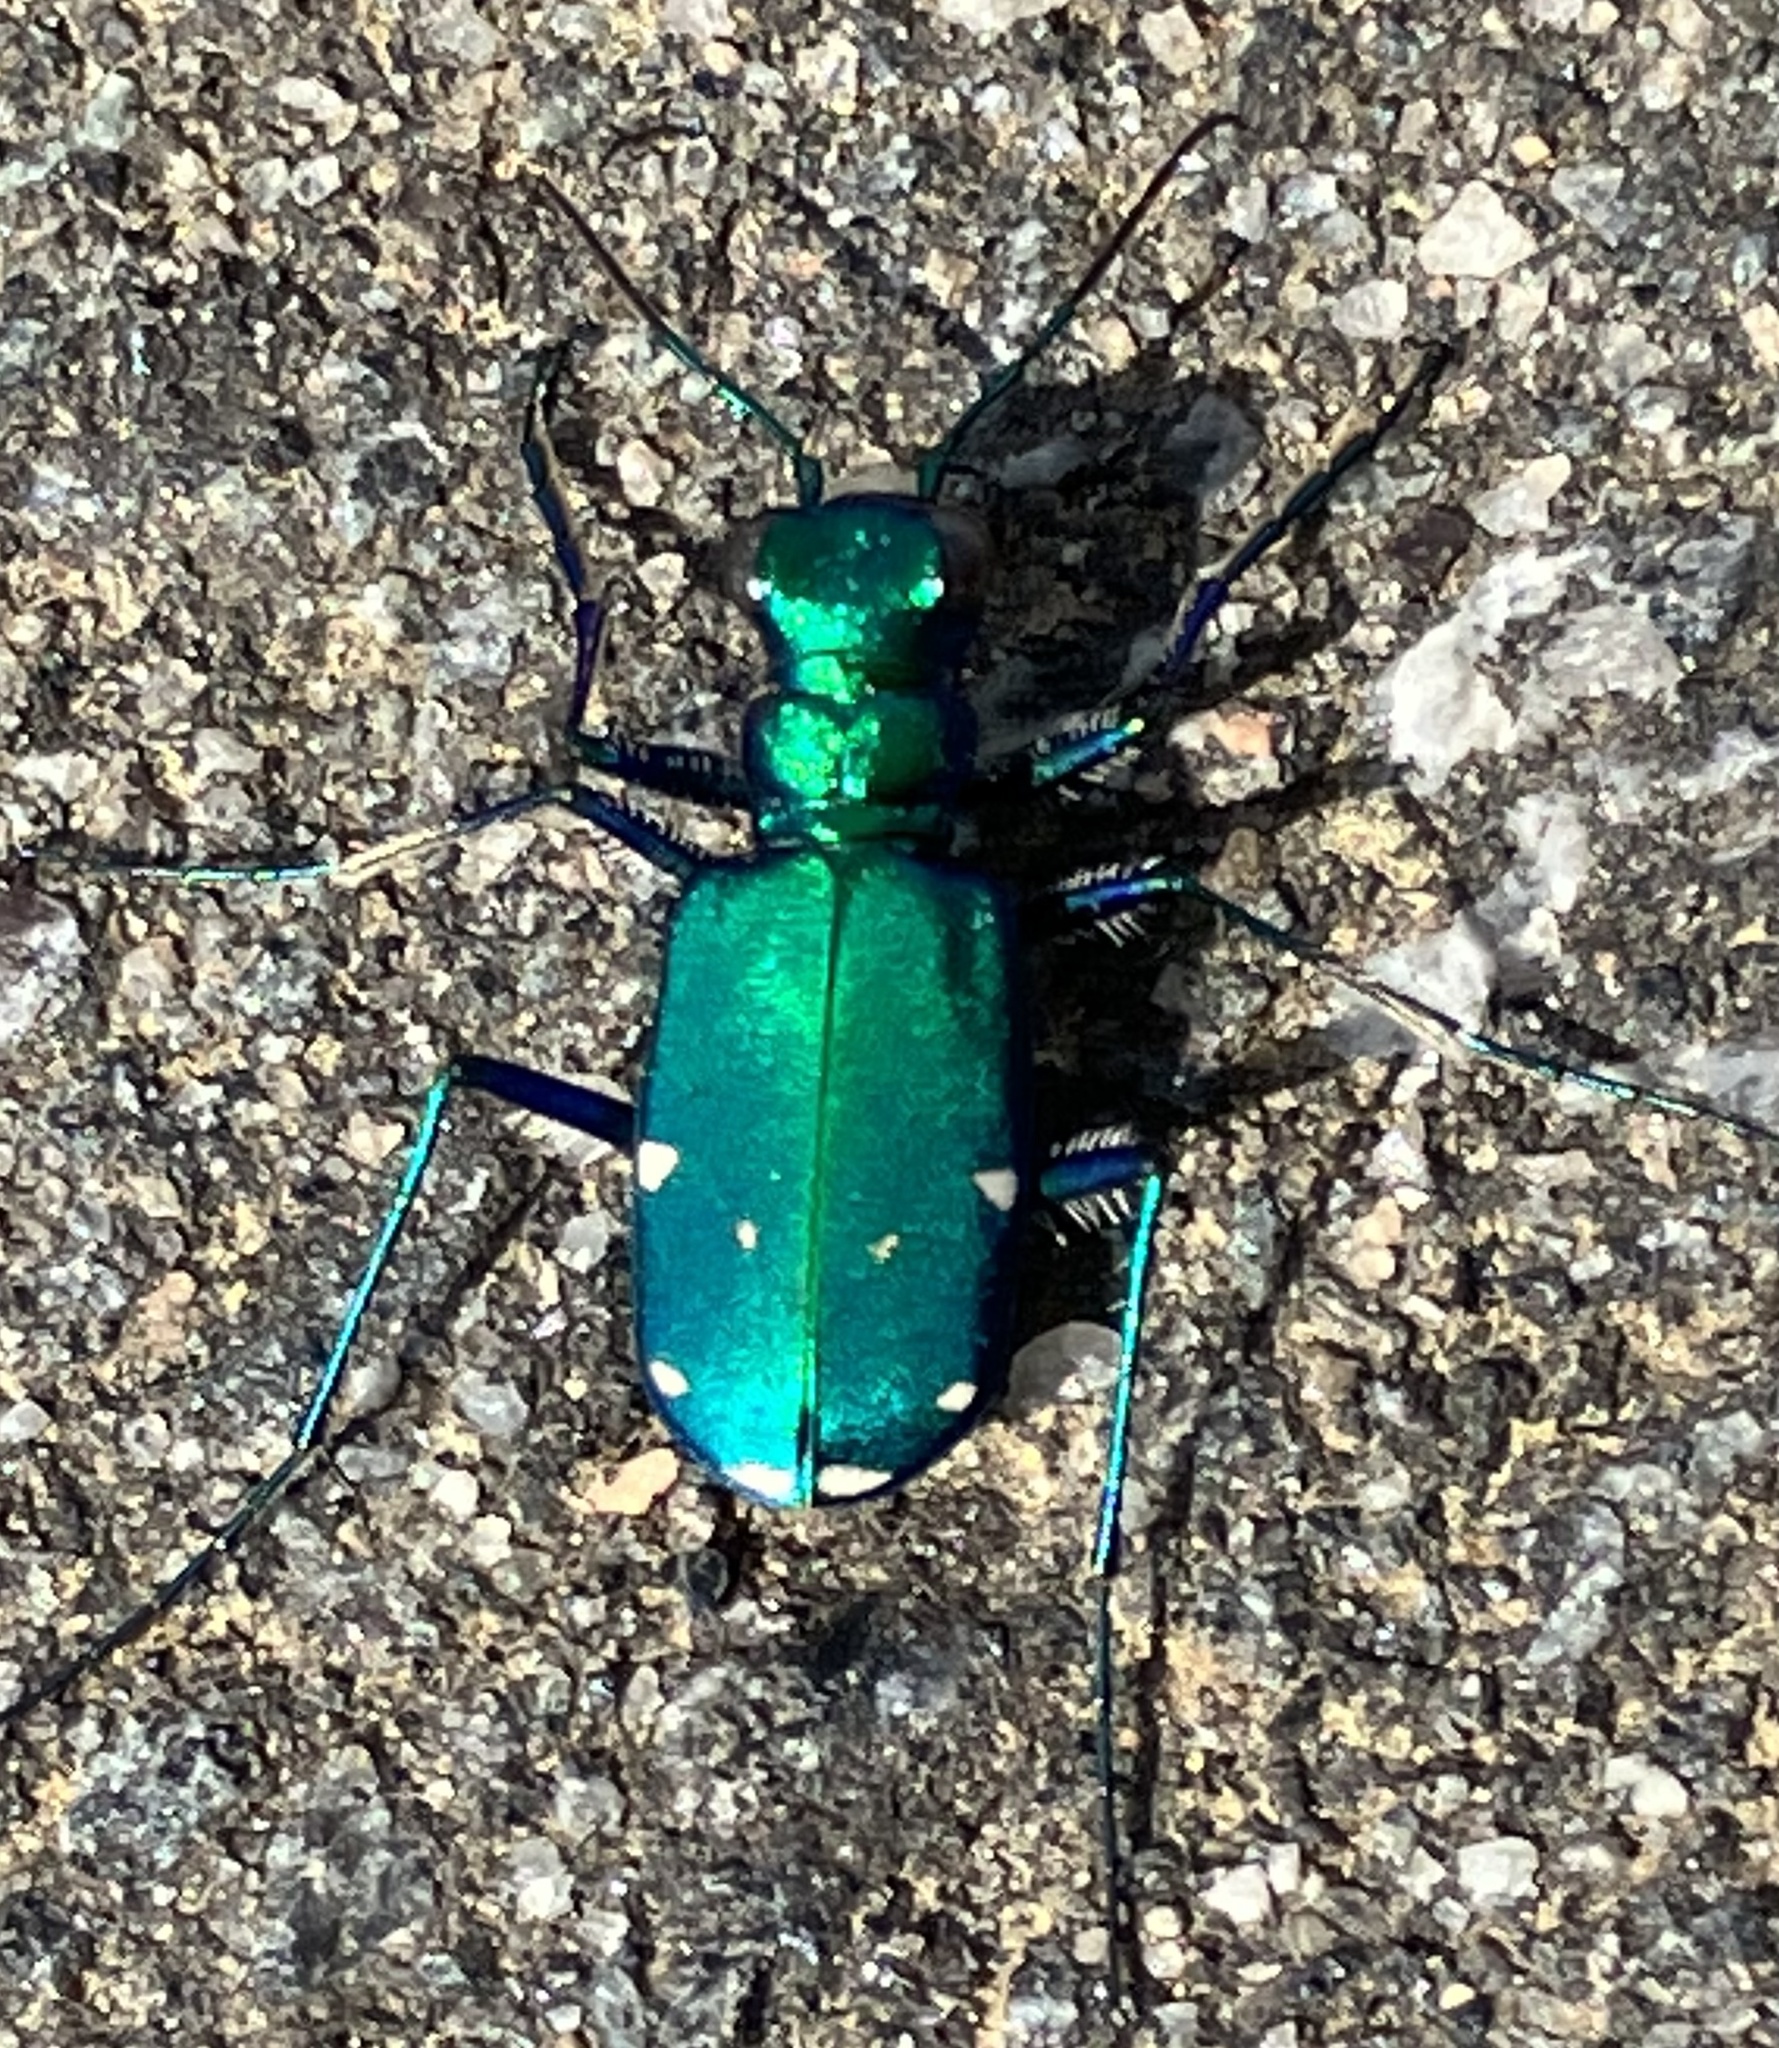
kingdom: Animalia
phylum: Arthropoda
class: Insecta
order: Coleoptera
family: Carabidae
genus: Cicindela
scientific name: Cicindela sexguttata
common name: Six-spotted tiger beetle
